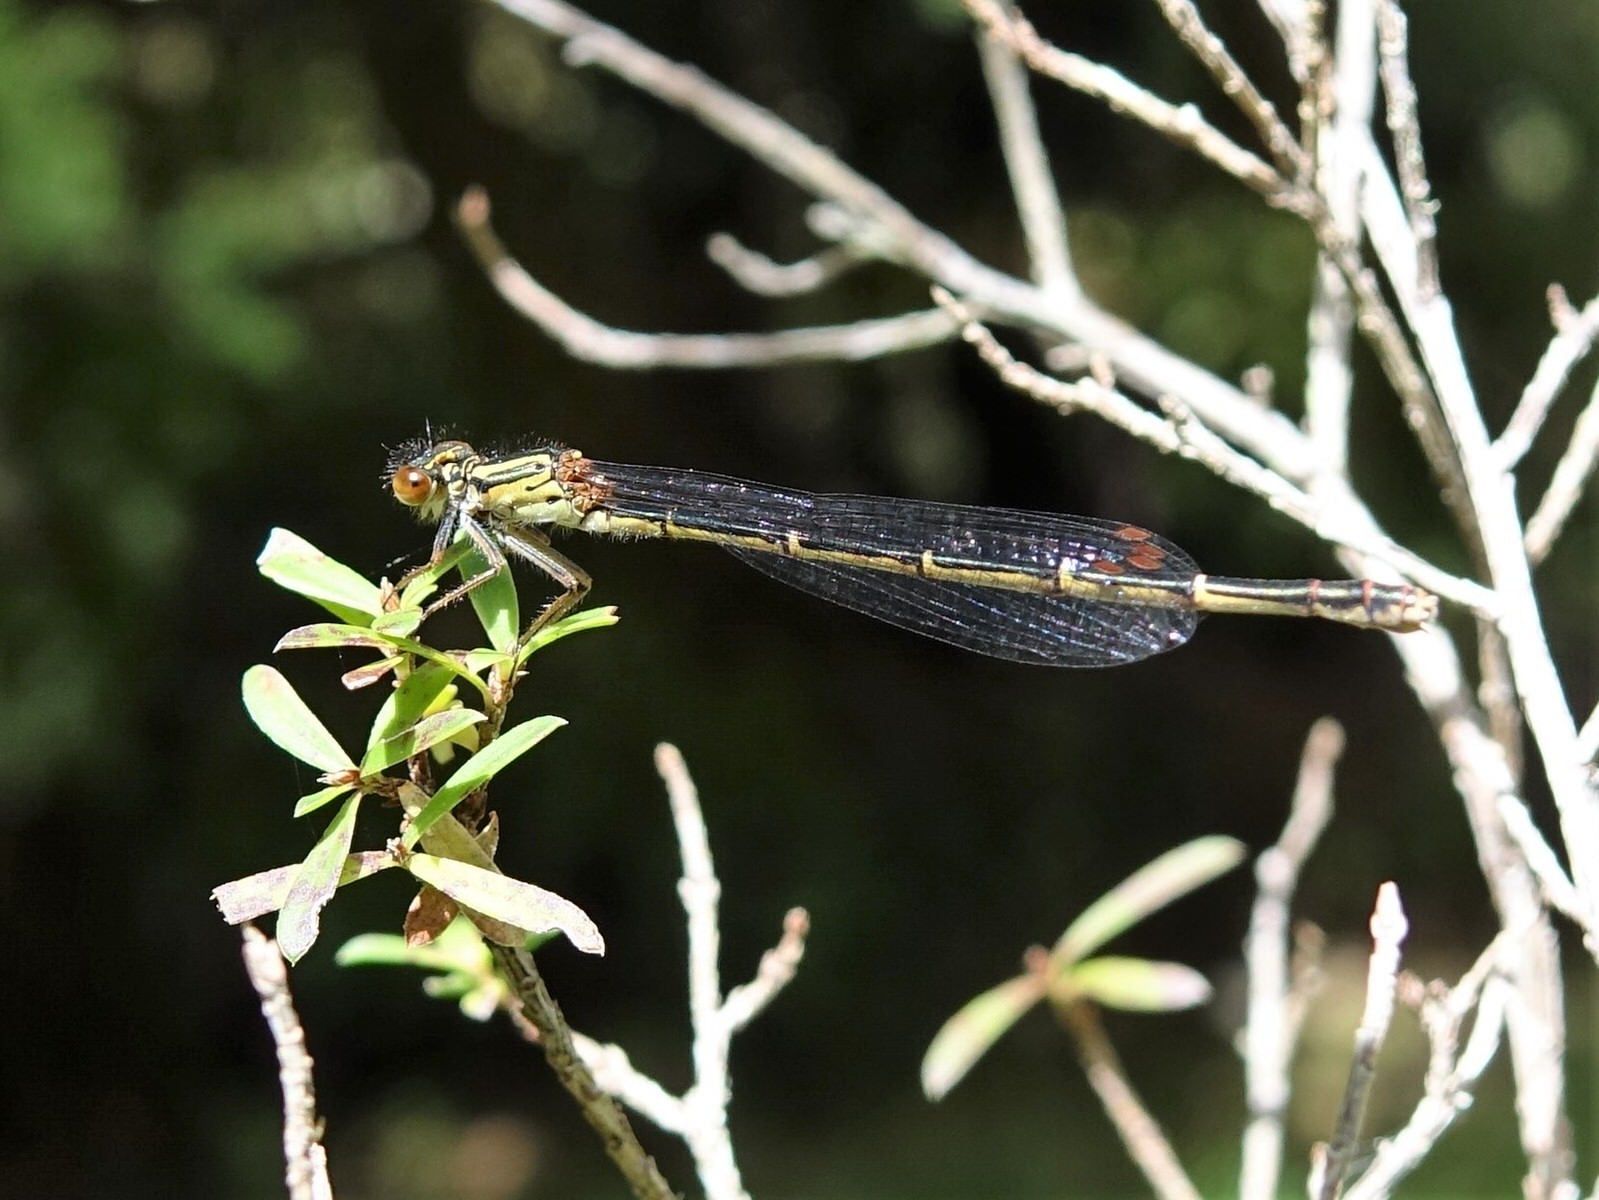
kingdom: Animalia
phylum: Arthropoda
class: Insecta
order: Odonata
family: Coenagrionidae
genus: Xanthocnemis
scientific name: Xanthocnemis zealandica
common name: Common redcoat damselfly
